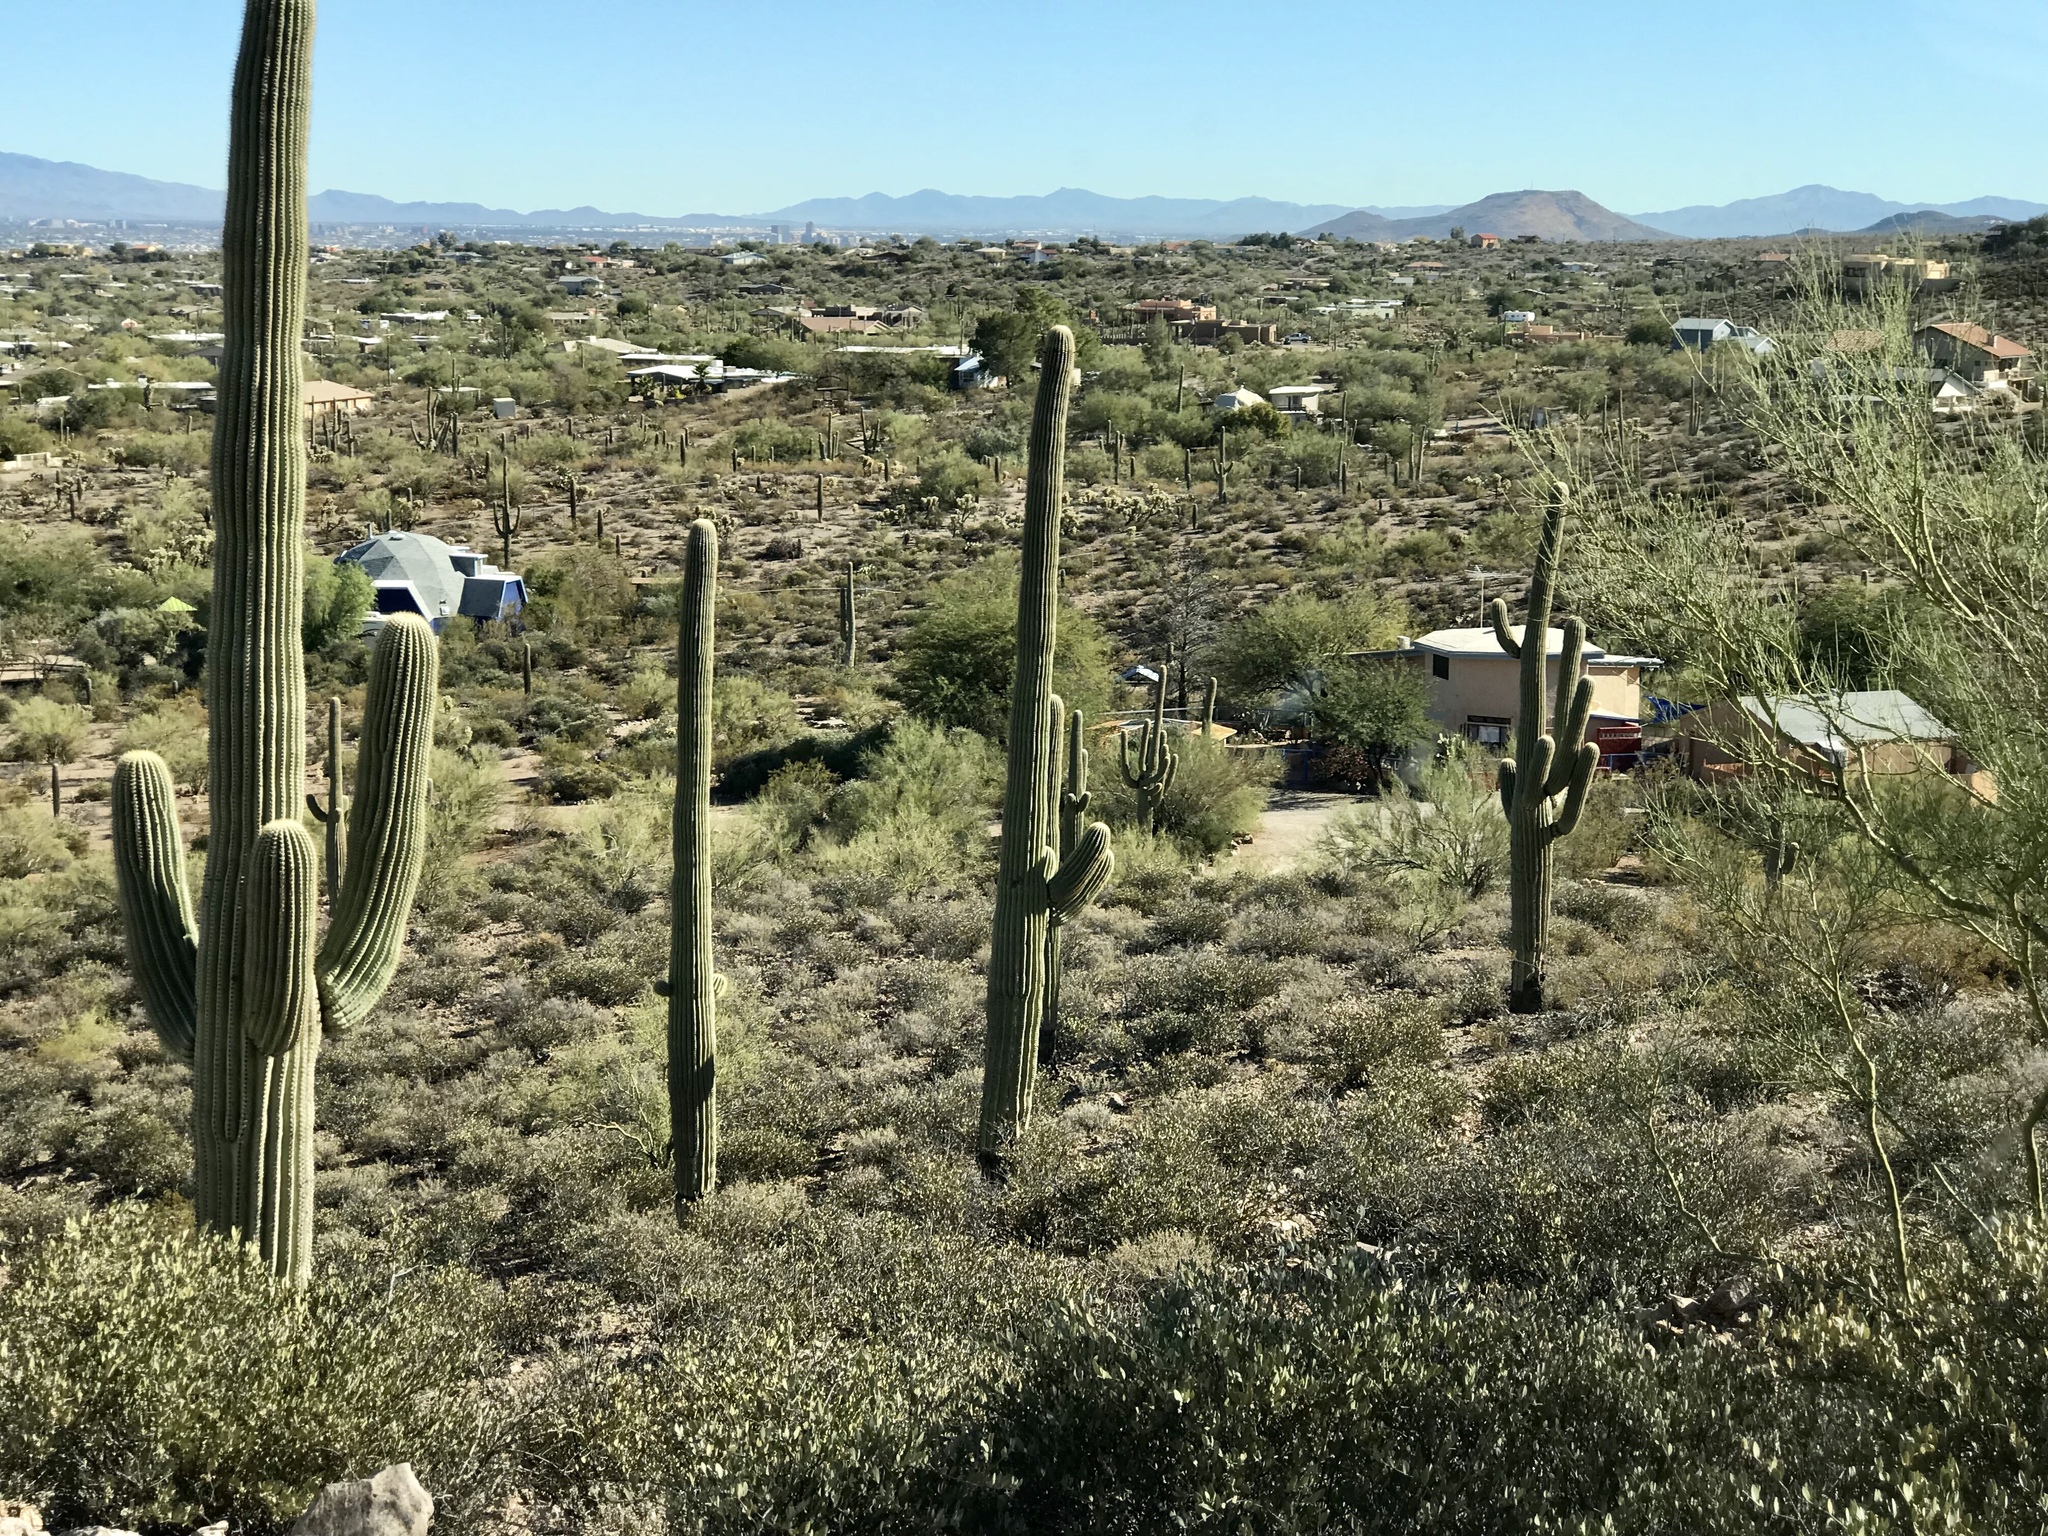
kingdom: Plantae
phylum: Tracheophyta
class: Magnoliopsida
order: Caryophyllales
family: Cactaceae
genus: Carnegiea
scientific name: Carnegiea gigantea
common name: Saguaro
